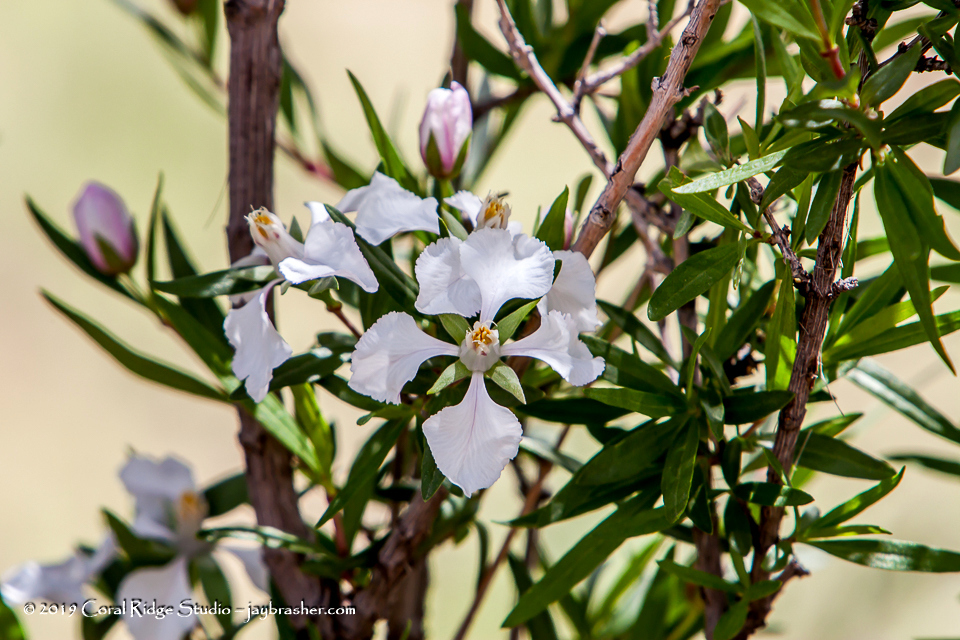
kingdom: Plantae
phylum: Tracheophyta
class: Magnoliopsida
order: Cornales
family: Hydrangeaceae
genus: Fendlera
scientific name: Fendlera rupicola
